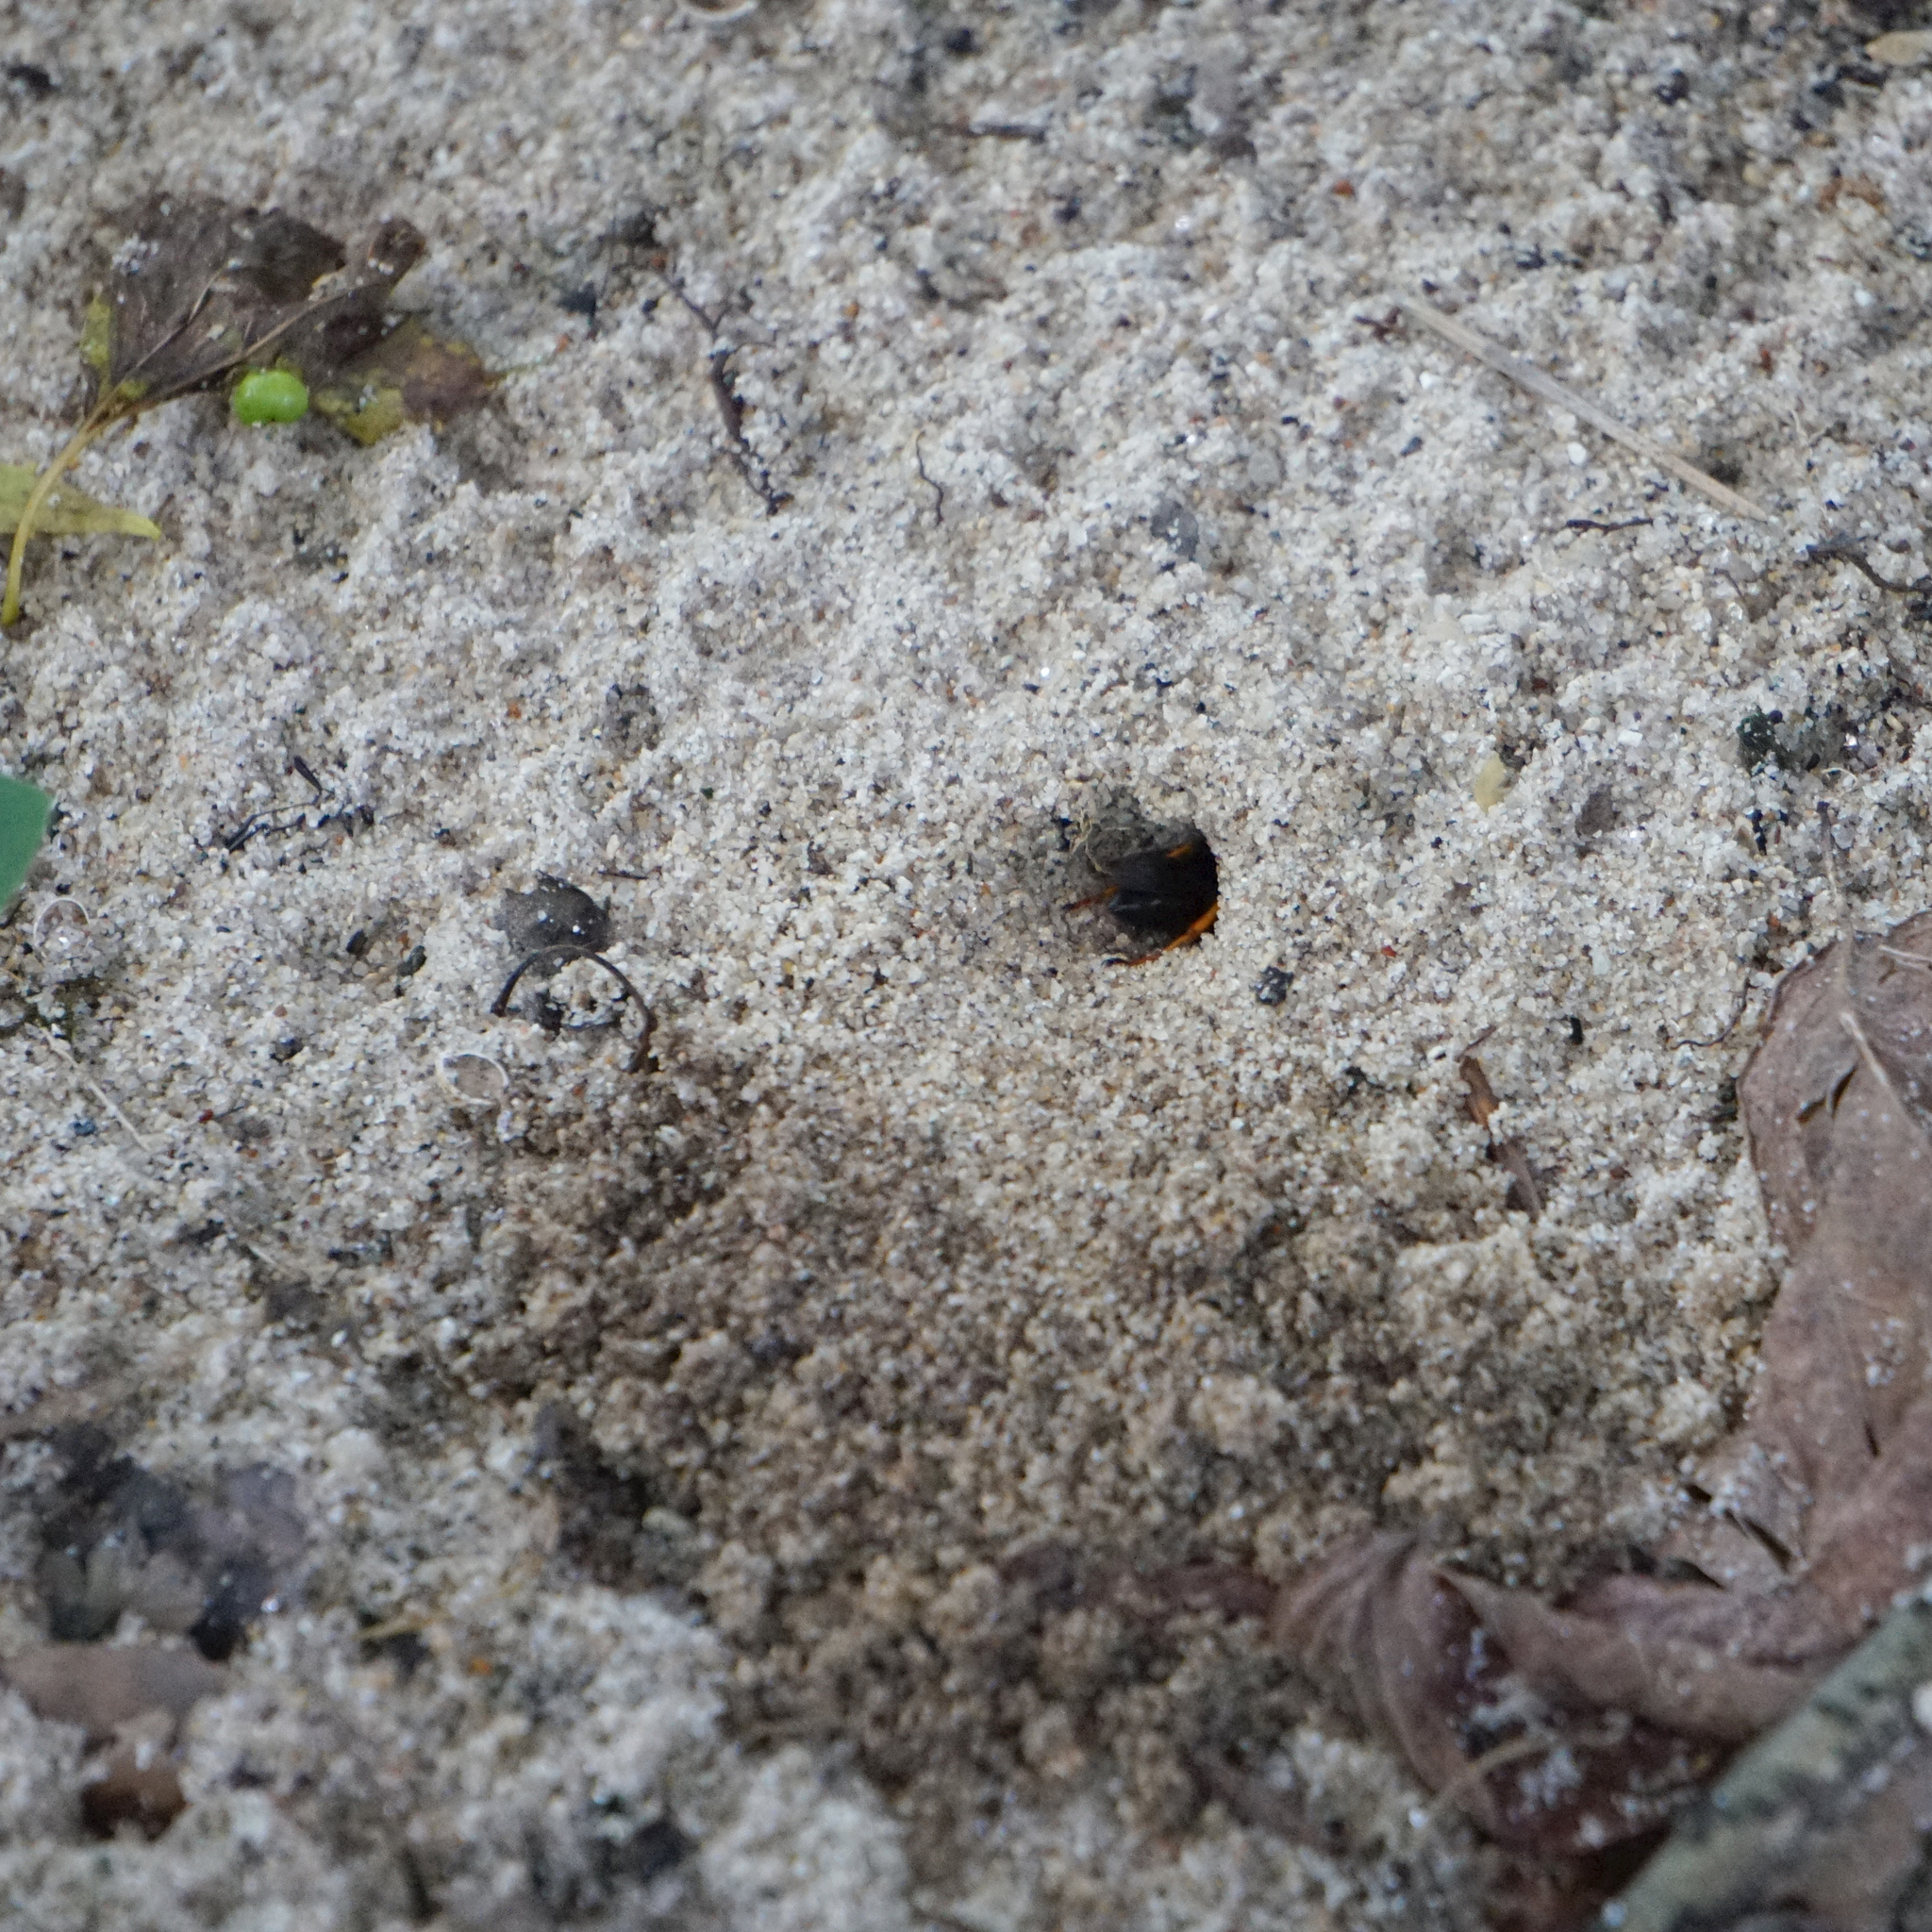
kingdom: Animalia
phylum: Arthropoda
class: Insecta
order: Hymenoptera
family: Sphecidae
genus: Sphex
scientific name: Sphex nudus
